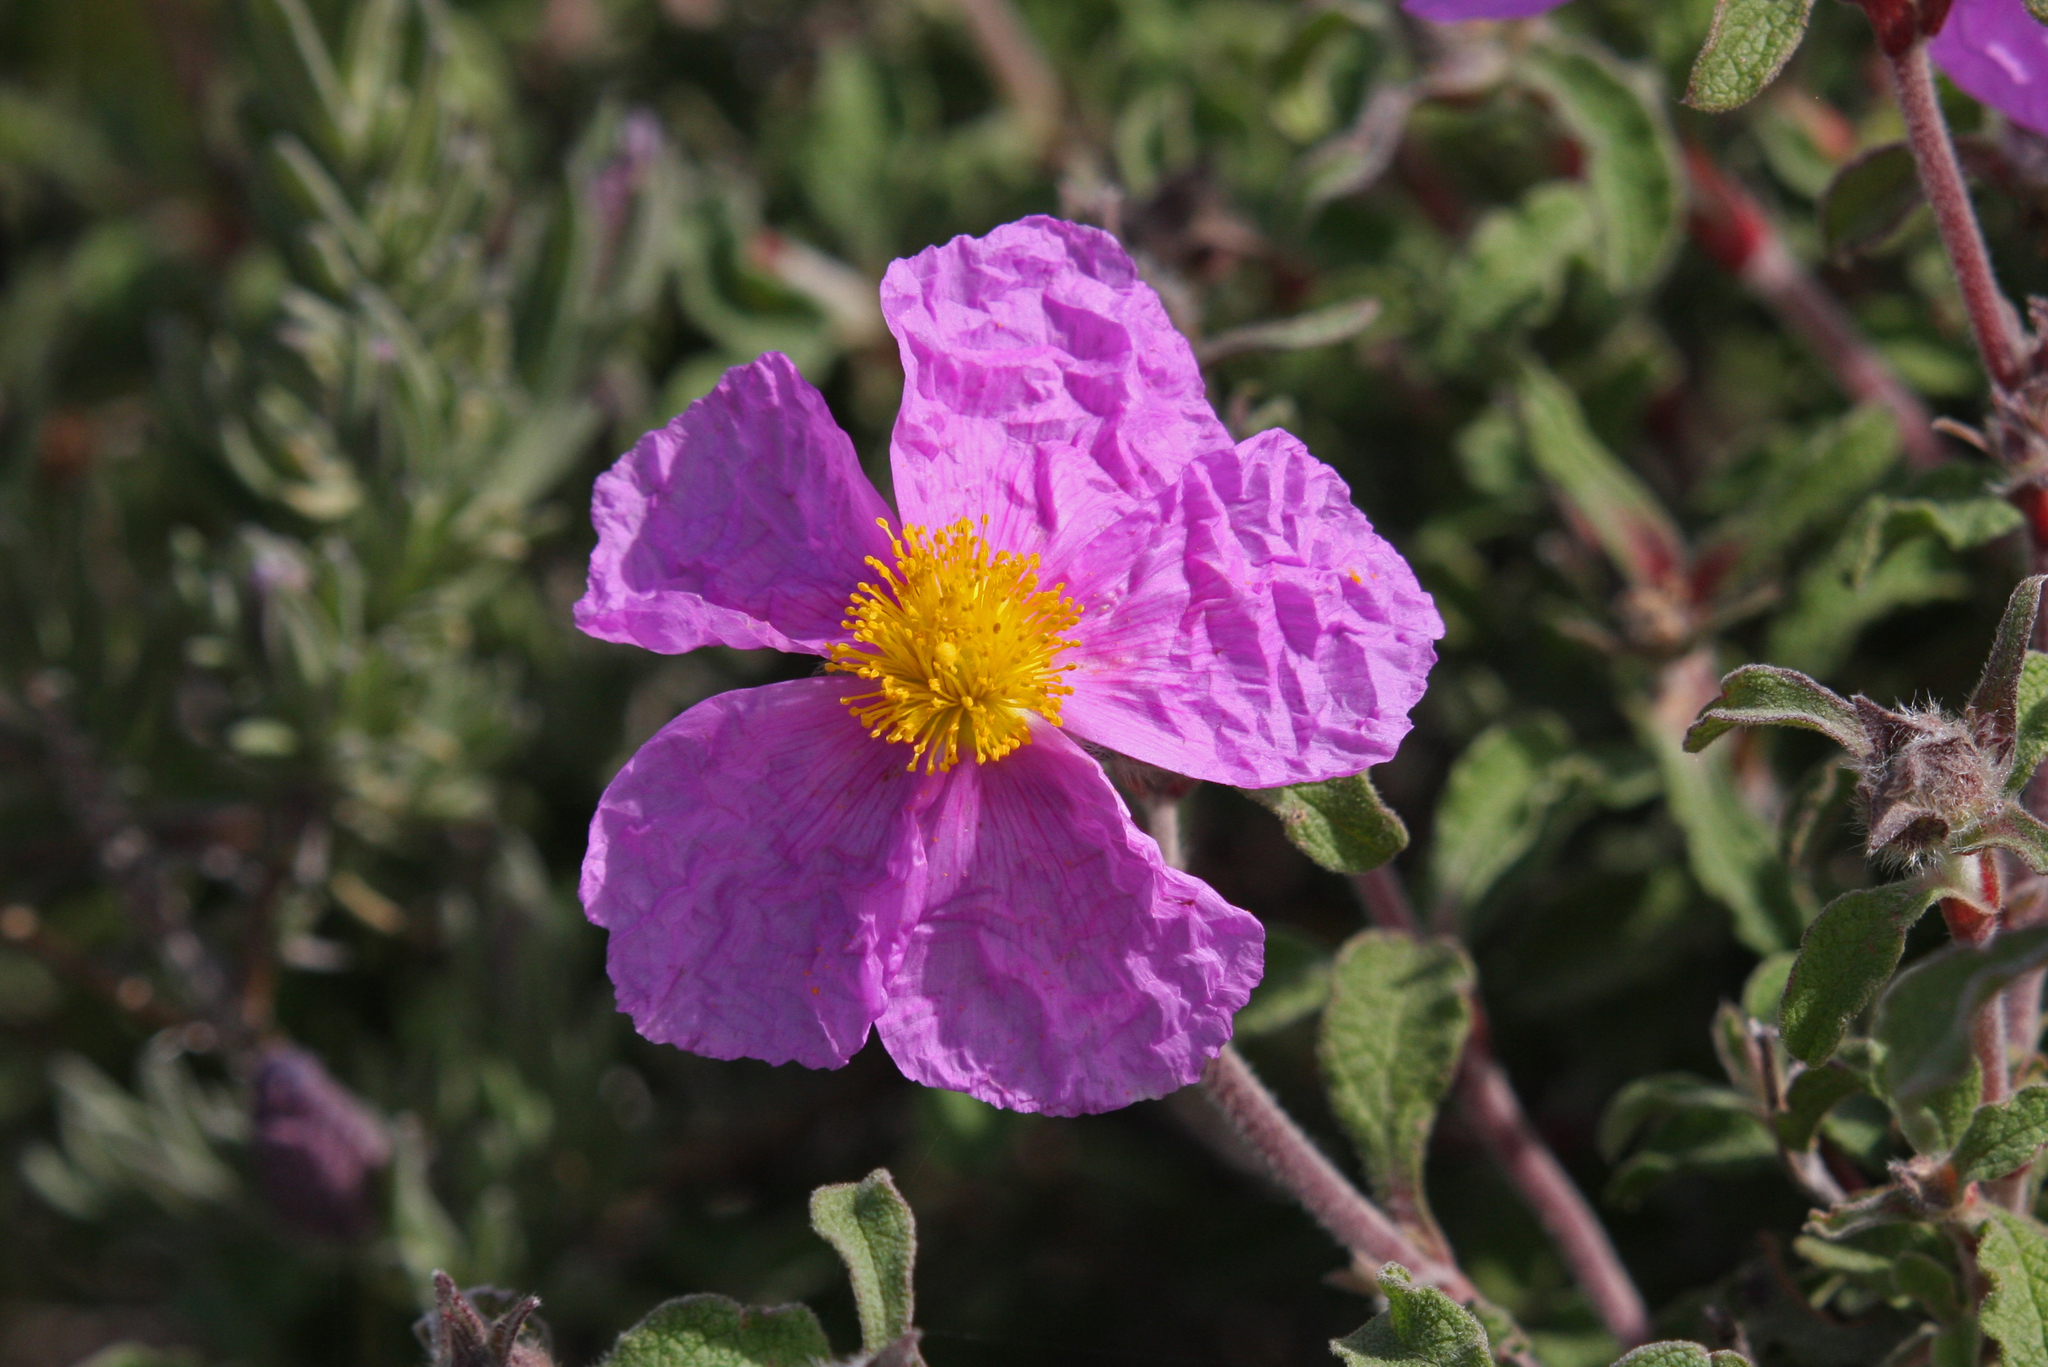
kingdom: Plantae
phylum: Tracheophyta
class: Magnoliopsida
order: Malvales
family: Cistaceae
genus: Cistus
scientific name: Cistus creticus
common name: Cretan rockrose
